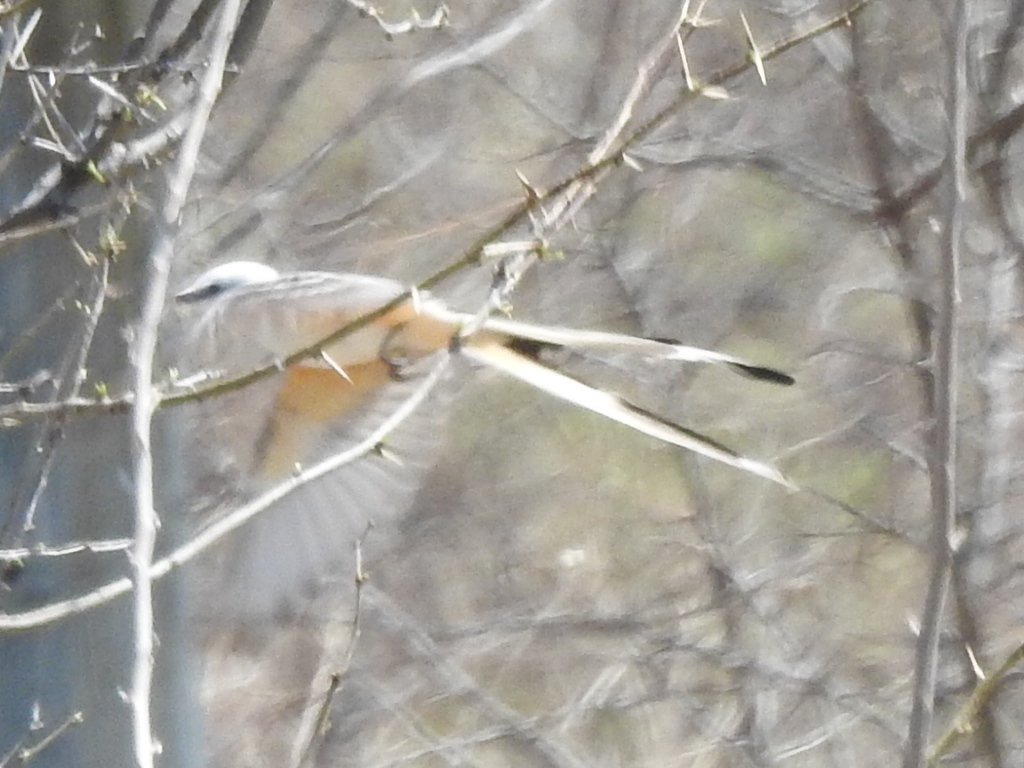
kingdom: Animalia
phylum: Chordata
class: Aves
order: Passeriformes
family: Tyrannidae
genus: Tyrannus
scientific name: Tyrannus forficatus
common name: Scissor-tailed flycatcher
